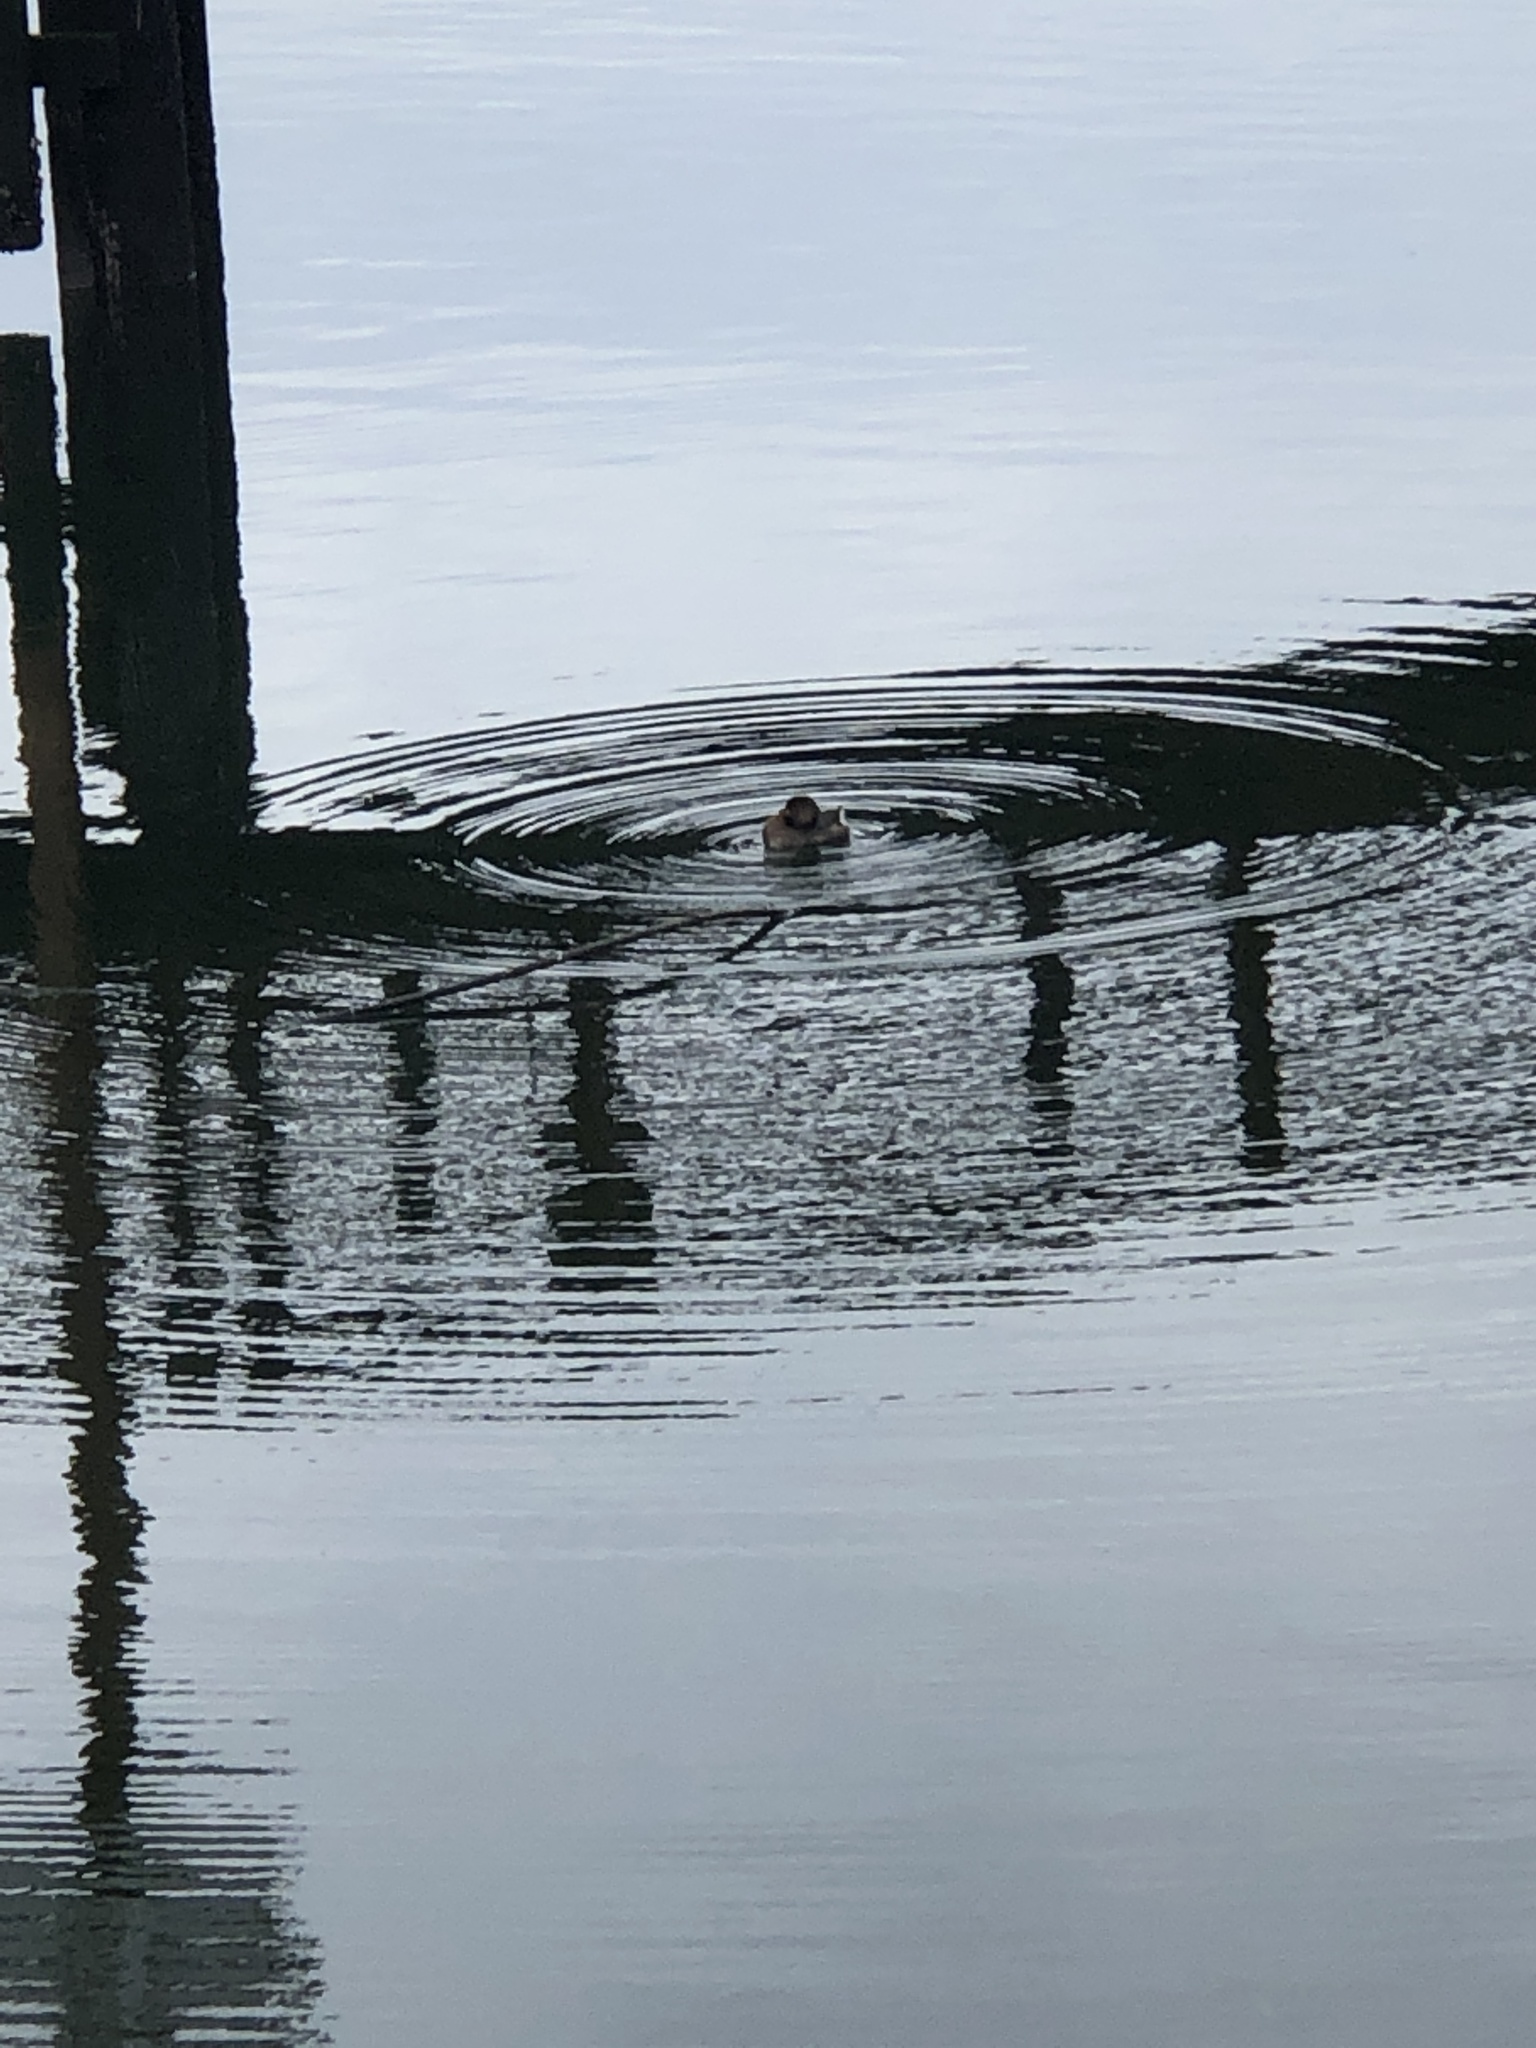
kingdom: Animalia
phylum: Chordata
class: Aves
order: Podicipediformes
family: Podicipedidae
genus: Podilymbus
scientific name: Podilymbus podiceps
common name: Pied-billed grebe
